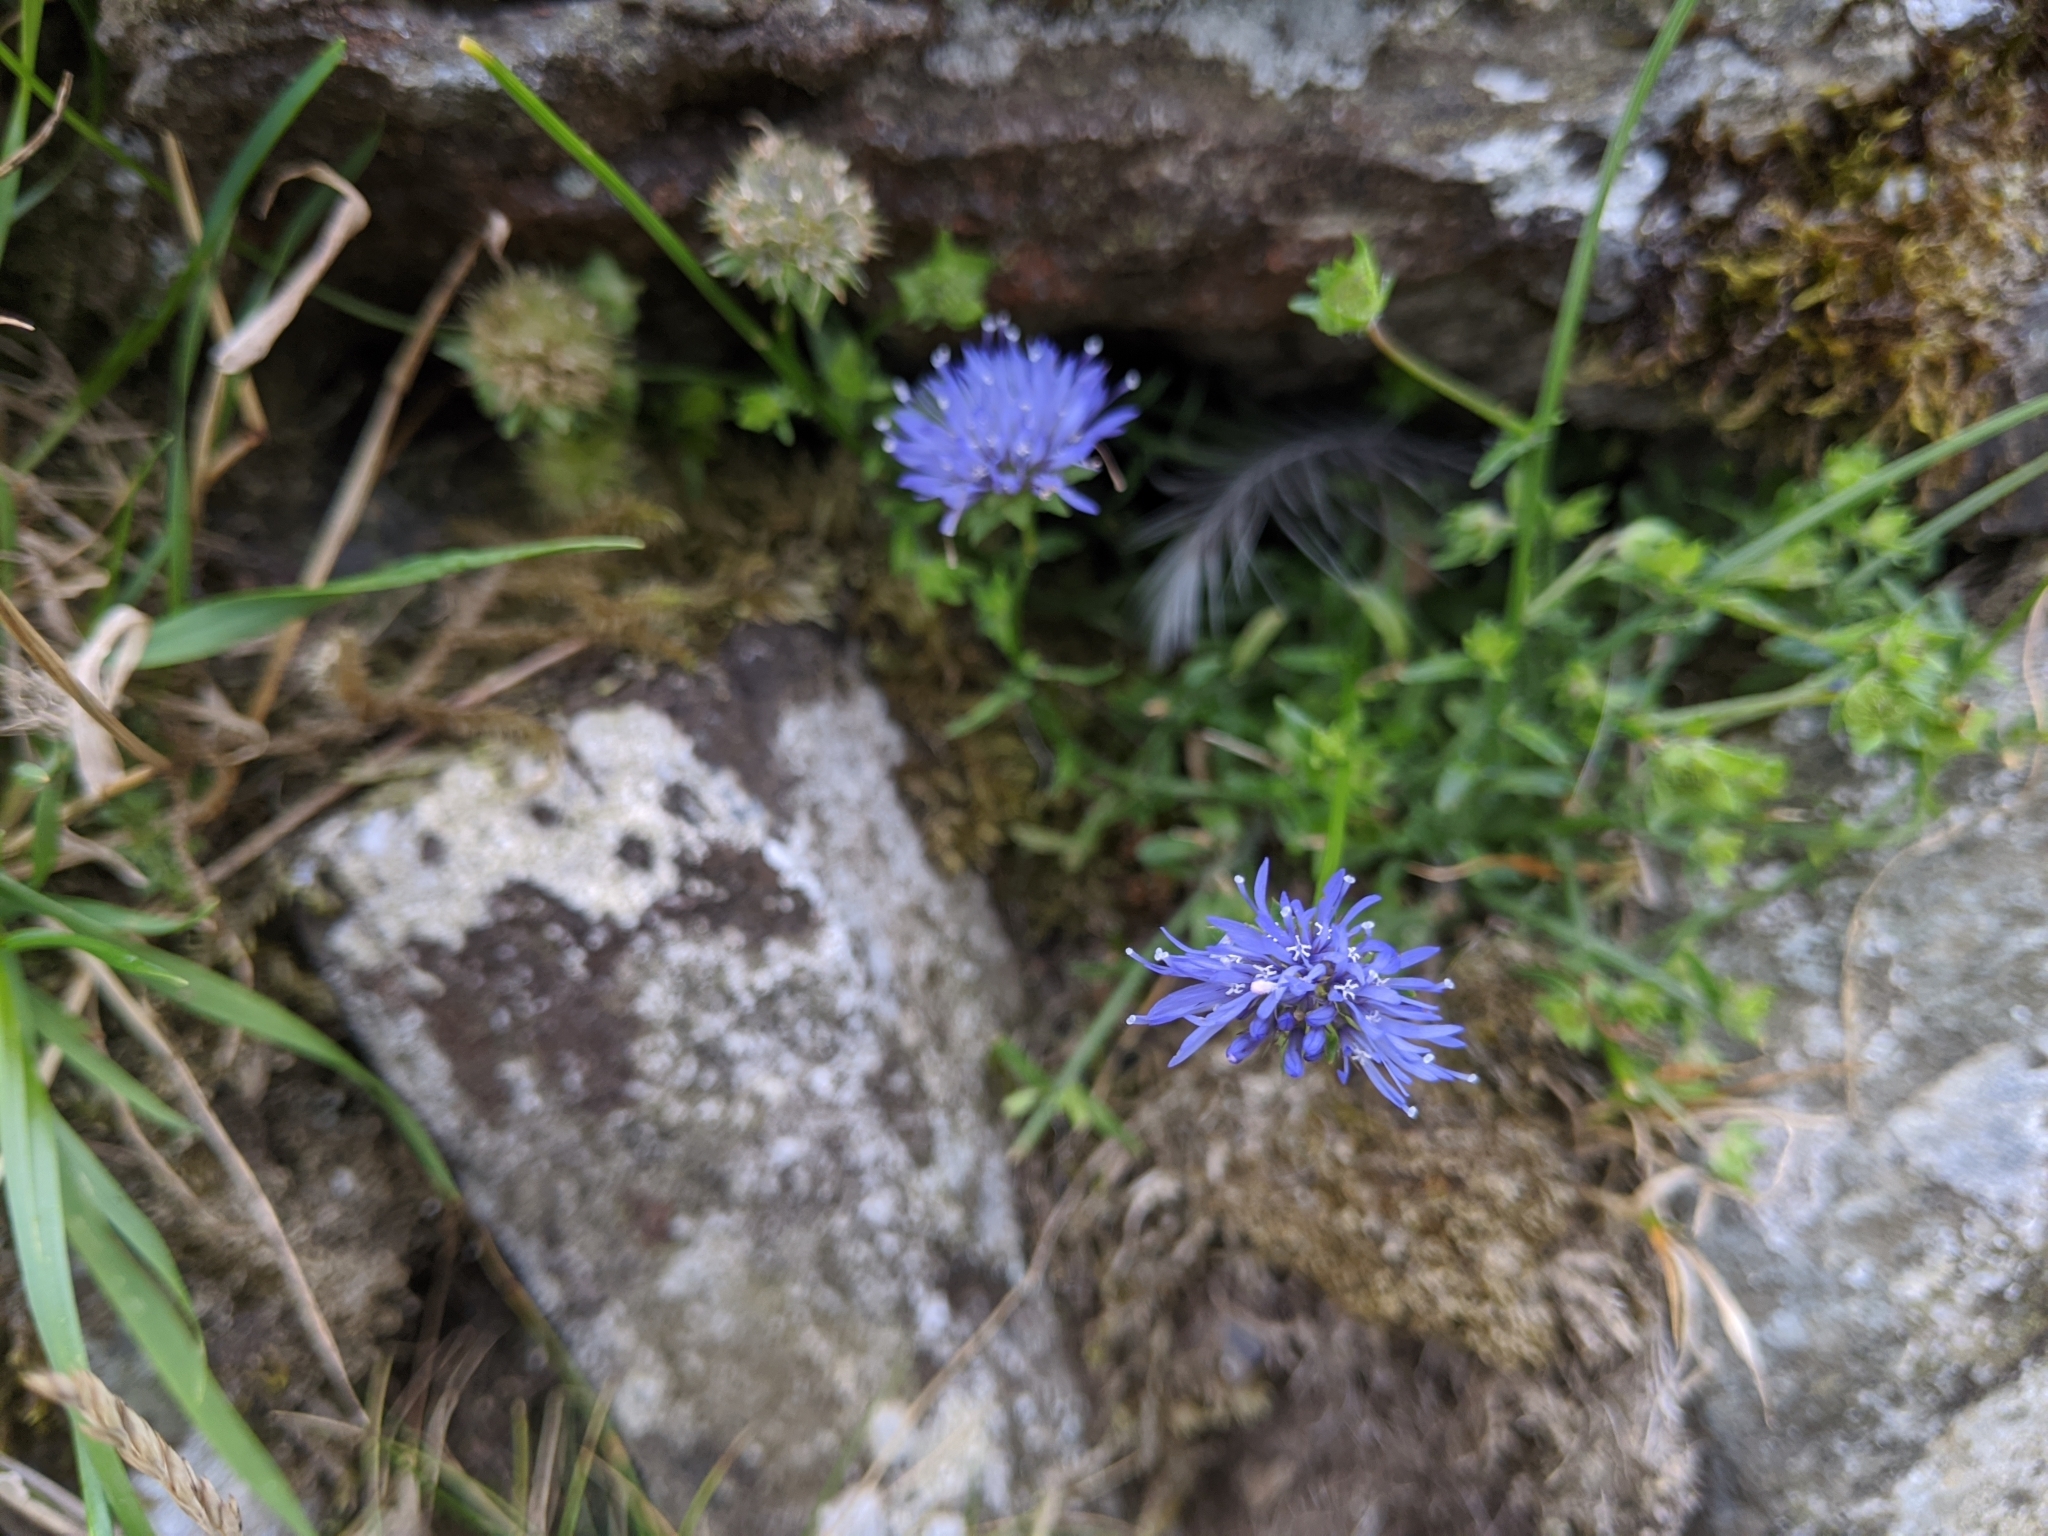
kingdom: Plantae
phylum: Tracheophyta
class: Magnoliopsida
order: Asterales
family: Campanulaceae
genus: Jasione
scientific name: Jasione montana
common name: Sheep's-bit
